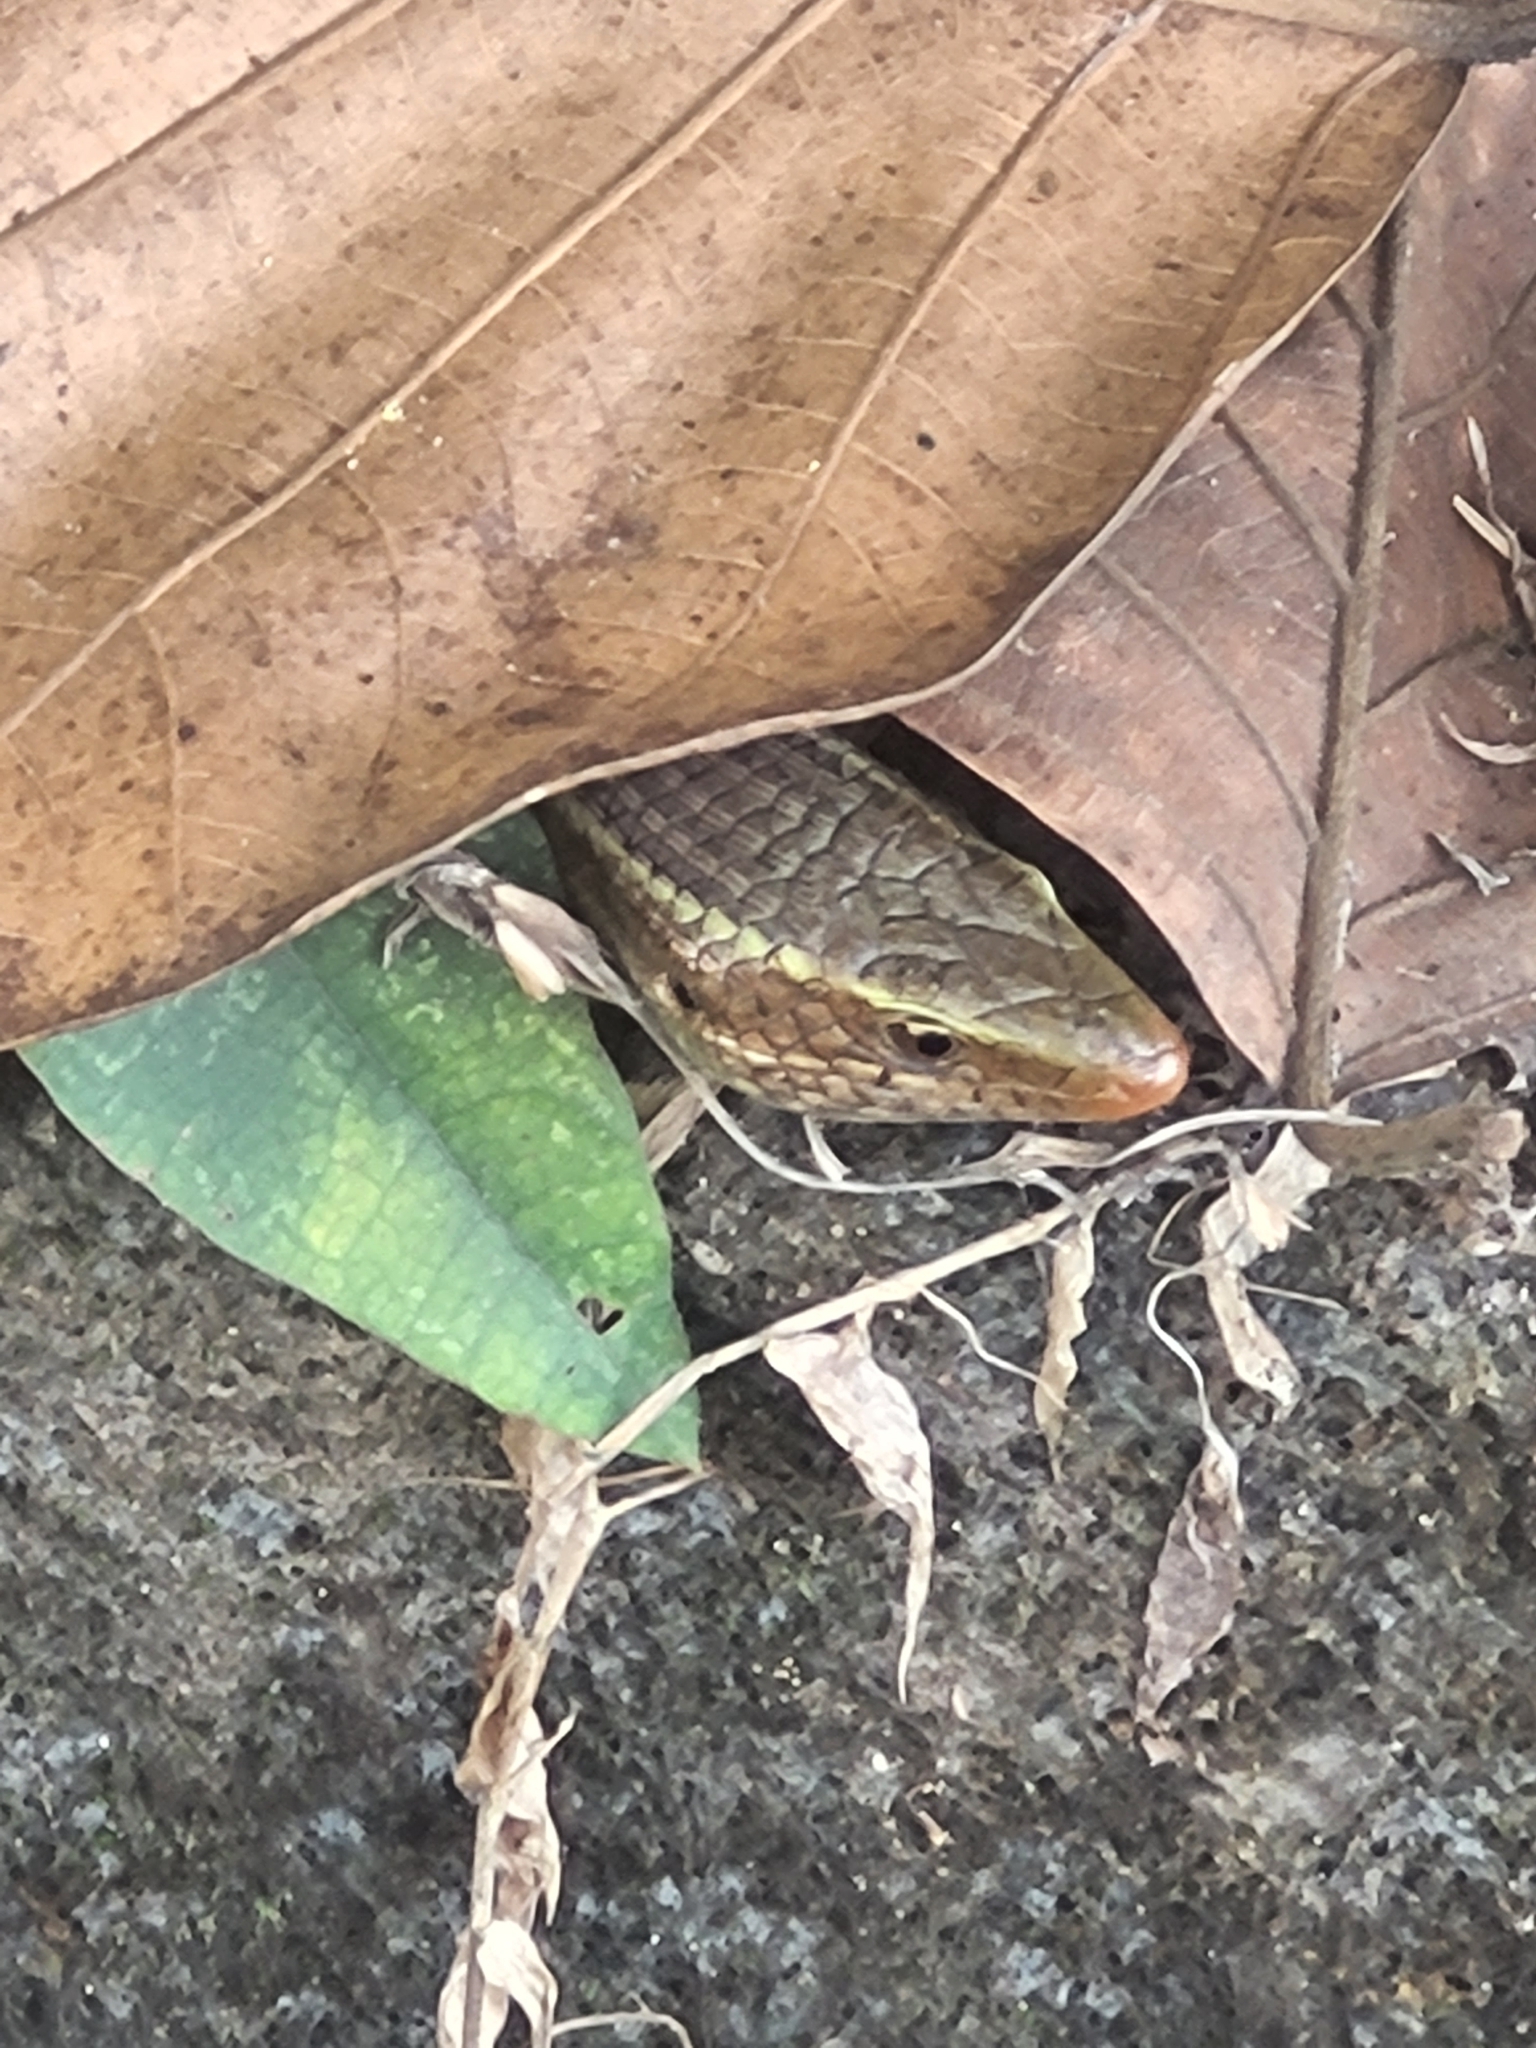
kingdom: Animalia
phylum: Chordata
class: Squamata
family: Scincidae
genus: Eutropis
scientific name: Eutropis carinata
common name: Keeled indian mabuya
